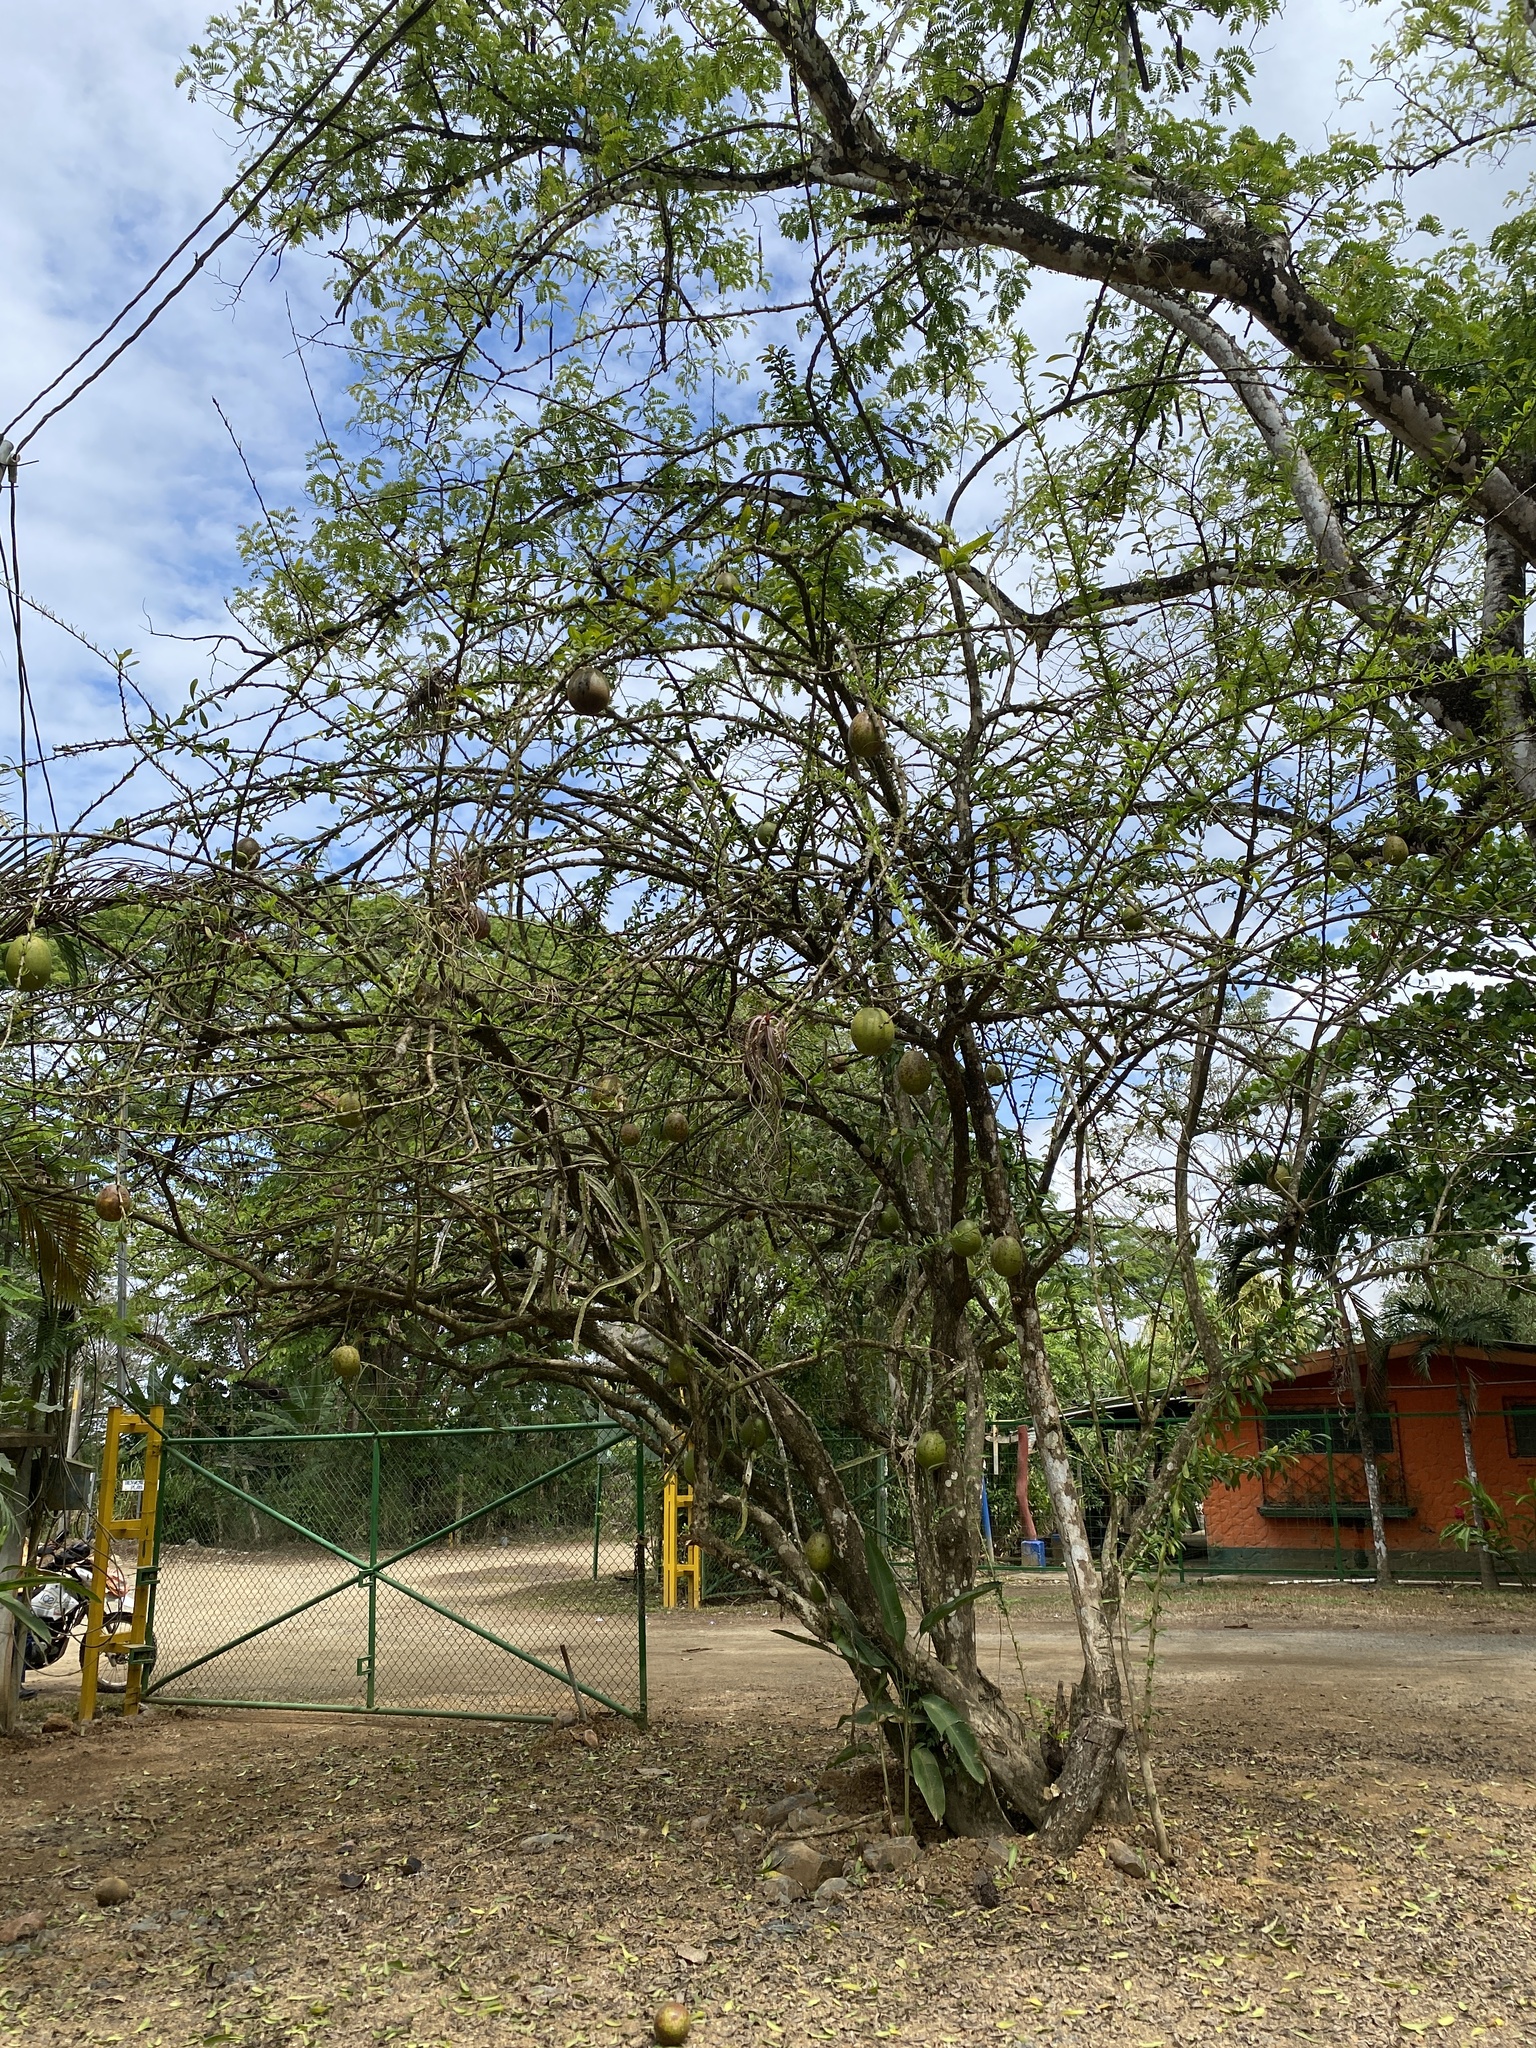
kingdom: Plantae
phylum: Tracheophyta
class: Magnoliopsida
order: Lamiales
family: Bignoniaceae
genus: Crescentia
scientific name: Crescentia cujete
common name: Calabash
